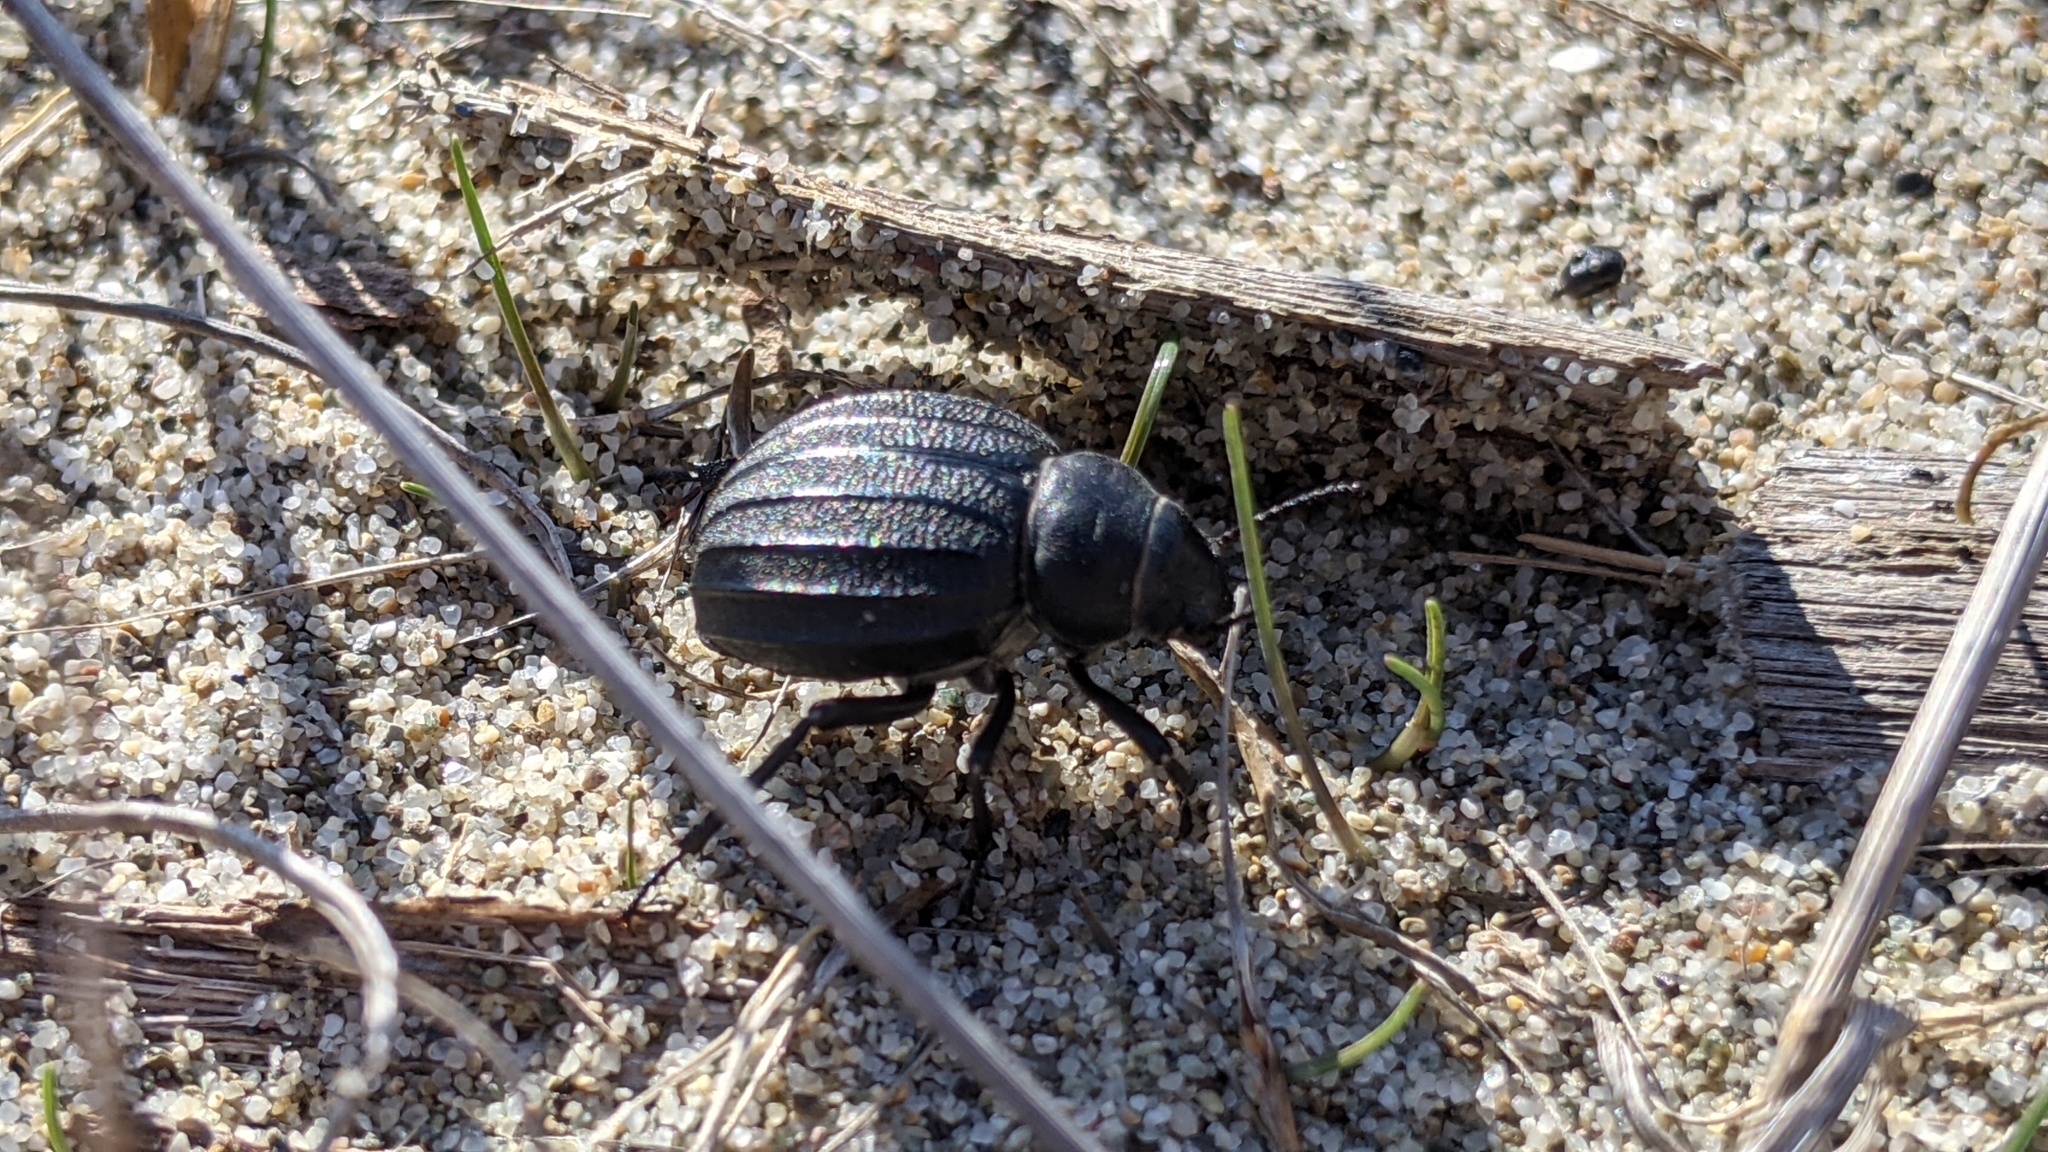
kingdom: Animalia
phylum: Arthropoda
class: Insecta
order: Coleoptera
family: Tenebrionidae
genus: Pimelia
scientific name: Pimelia bipunctata
